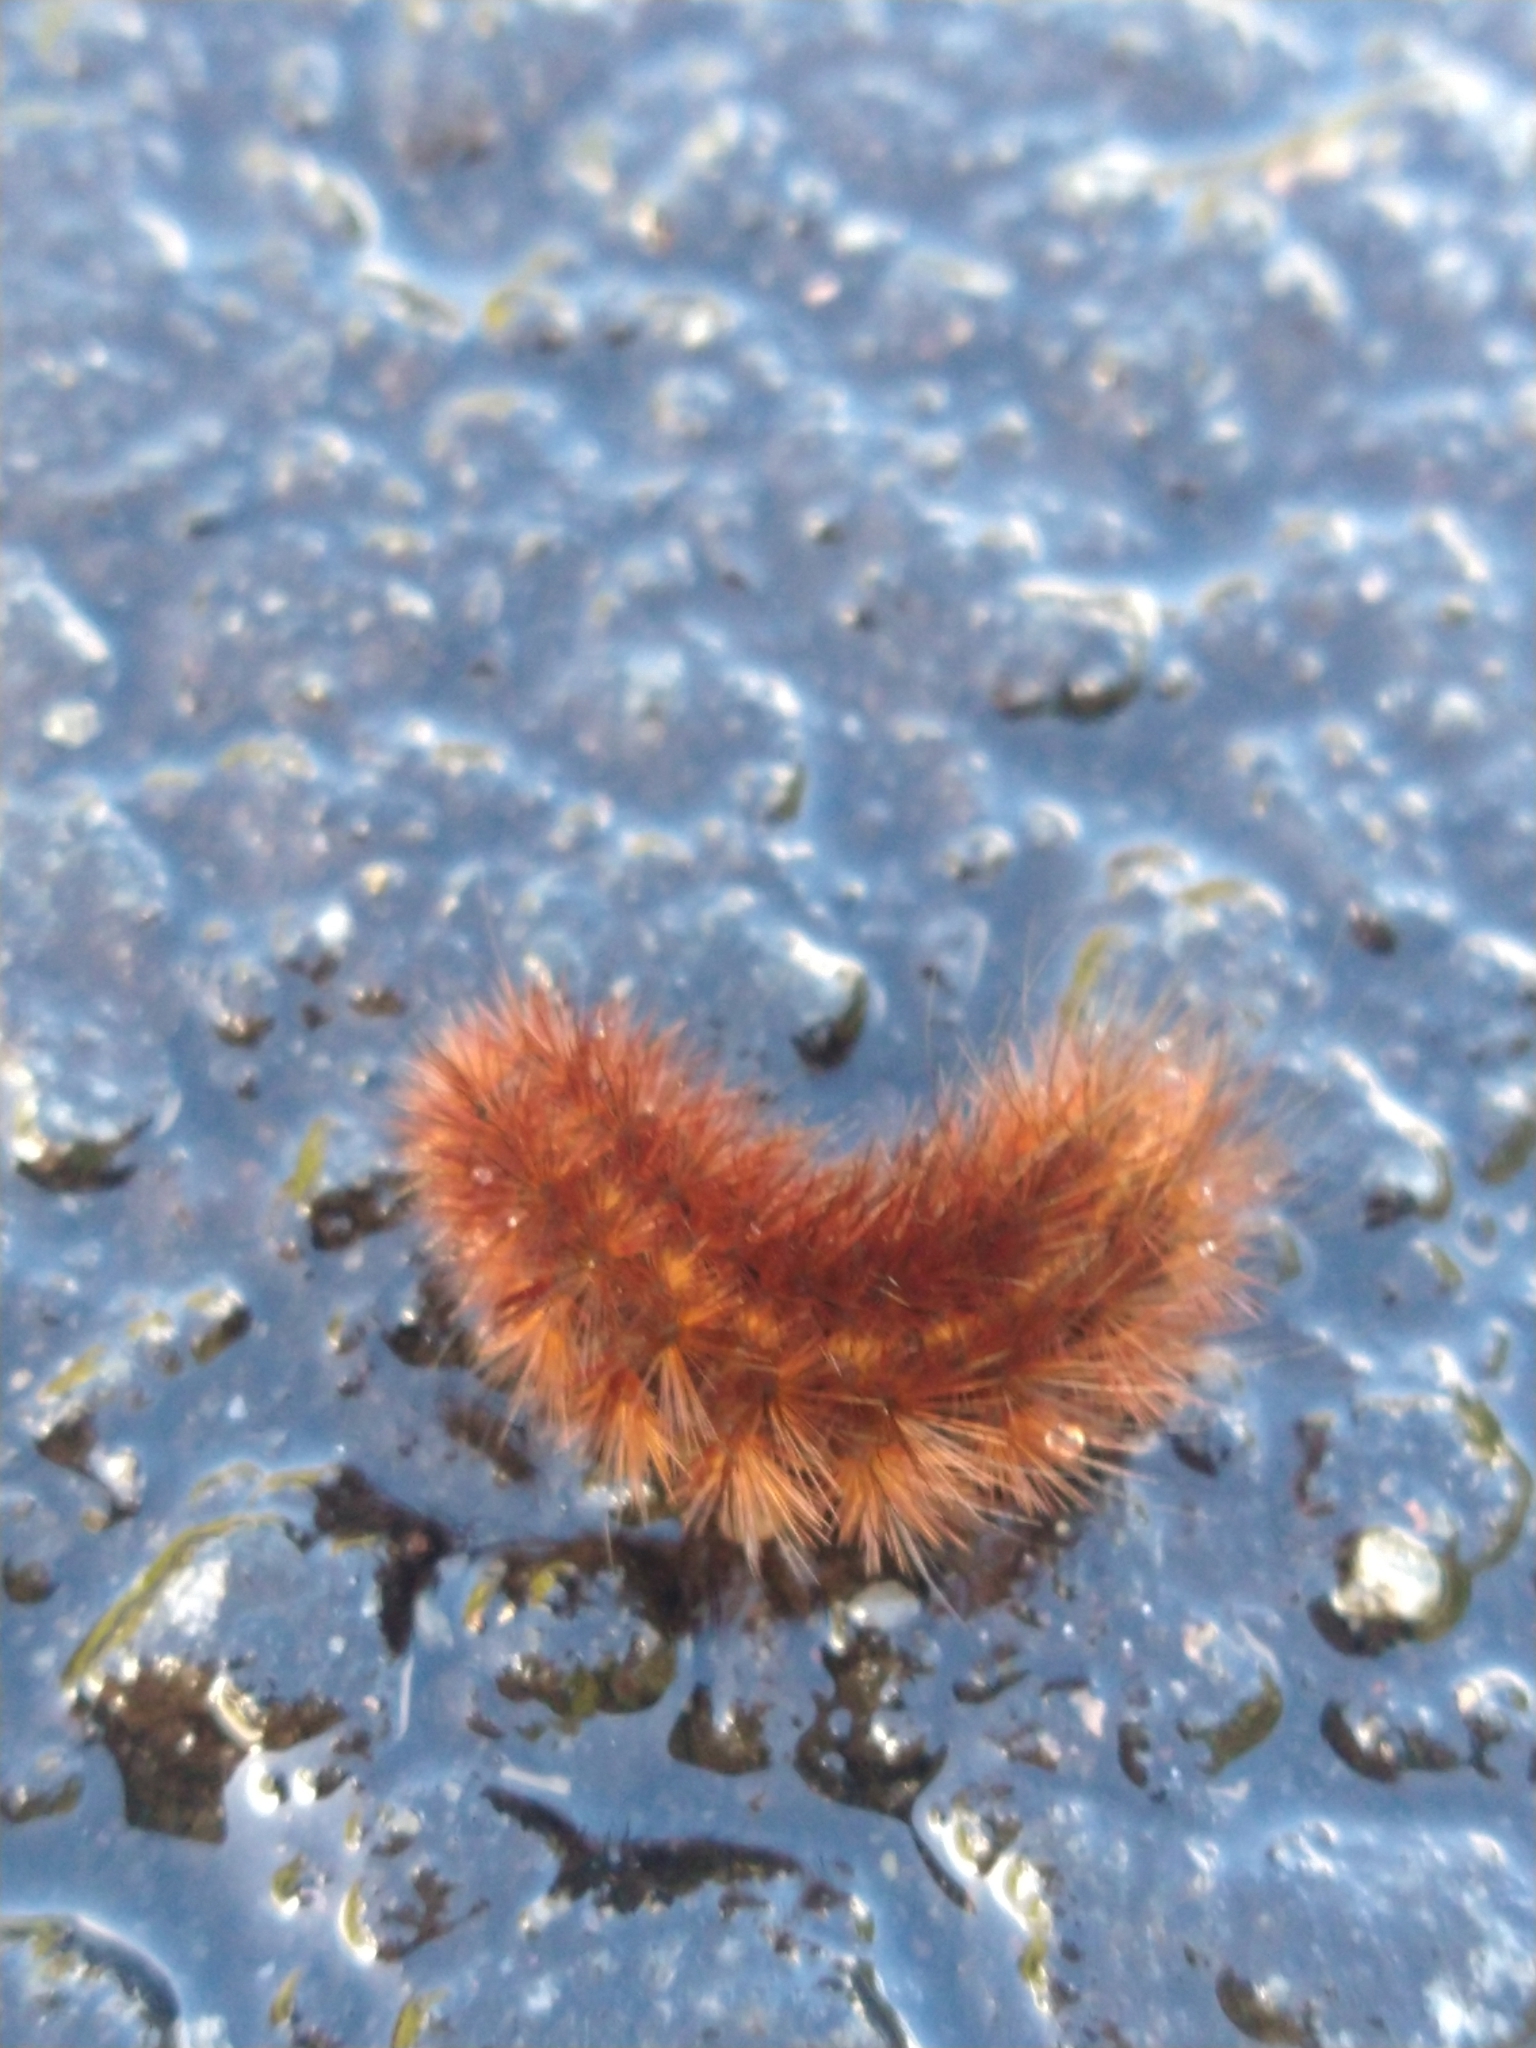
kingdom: Animalia
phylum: Arthropoda
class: Insecta
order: Lepidoptera
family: Erebidae
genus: Phragmatobia
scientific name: Phragmatobia fuliginosa
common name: Ruby tiger
